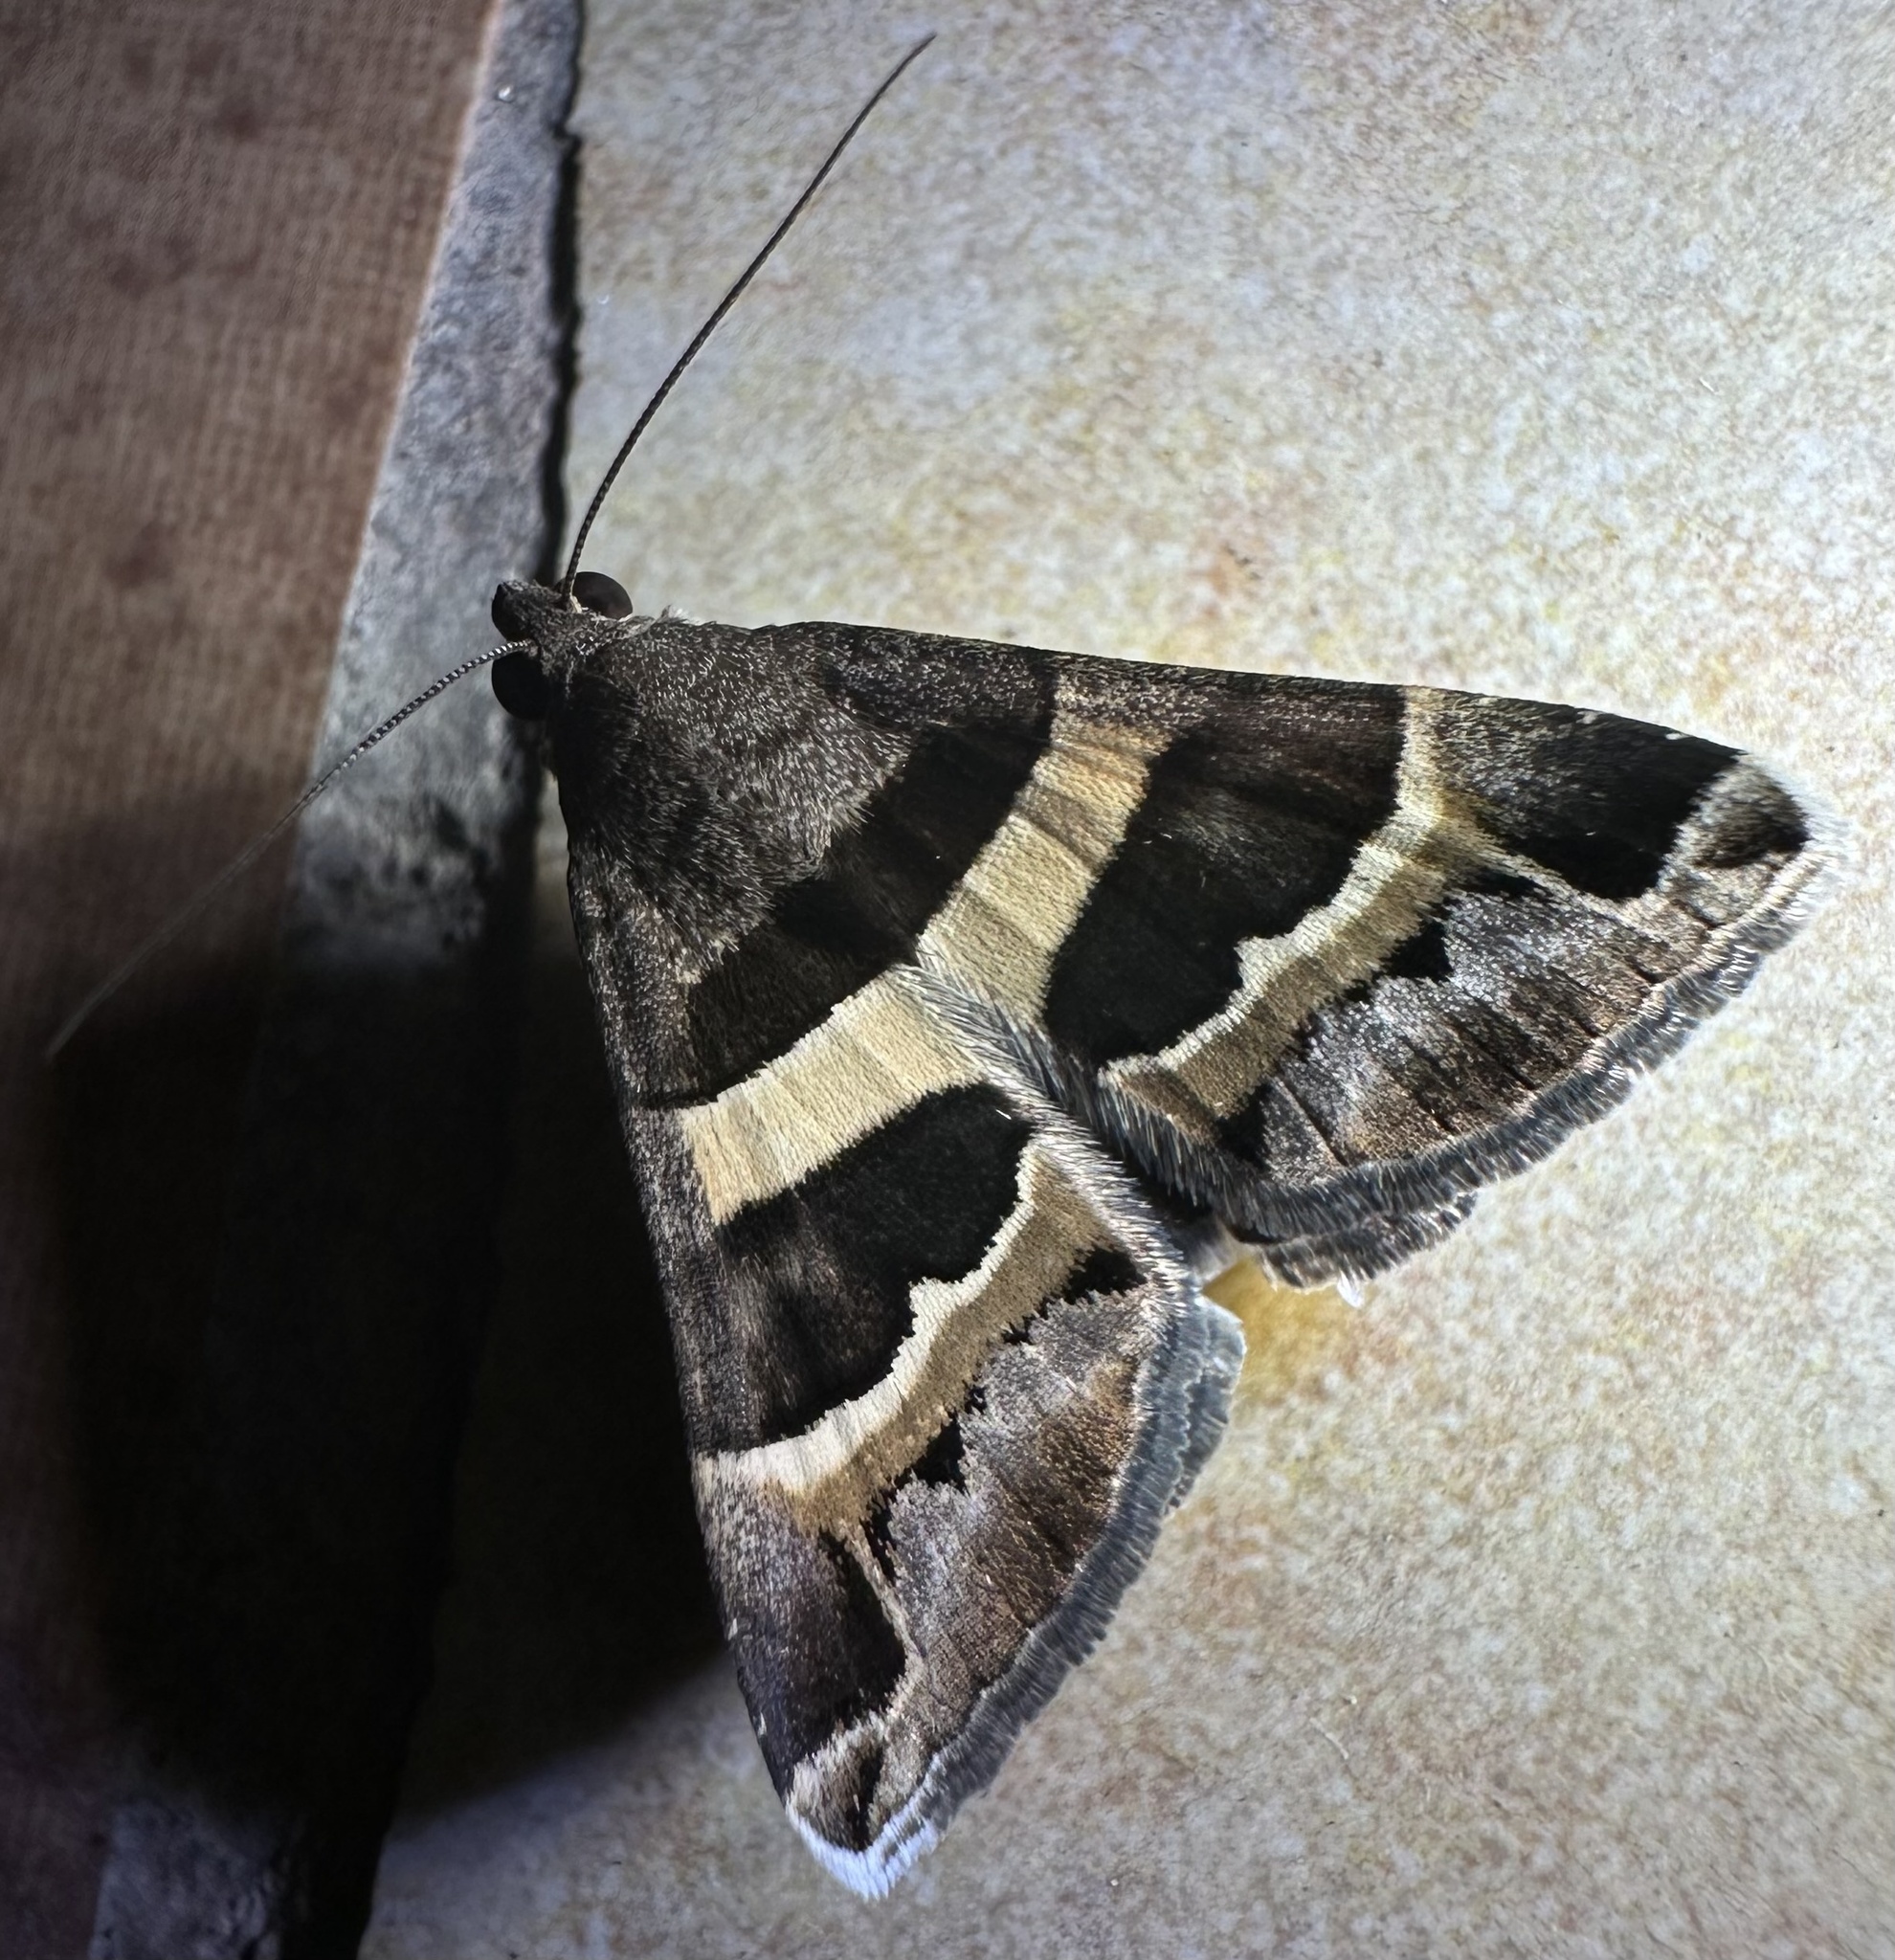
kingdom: Animalia
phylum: Arthropoda
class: Insecta
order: Lepidoptera
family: Erebidae
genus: Grammodes
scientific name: Grammodes stolida
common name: Geometrician
